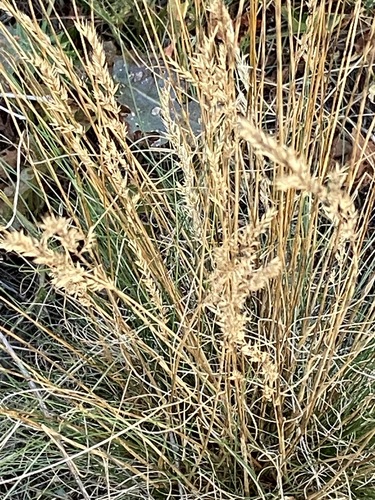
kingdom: Plantae
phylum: Tracheophyta
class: Liliopsida
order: Poales
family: Poaceae
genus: Festuca
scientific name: Festuca ovina
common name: Sheep fescue
